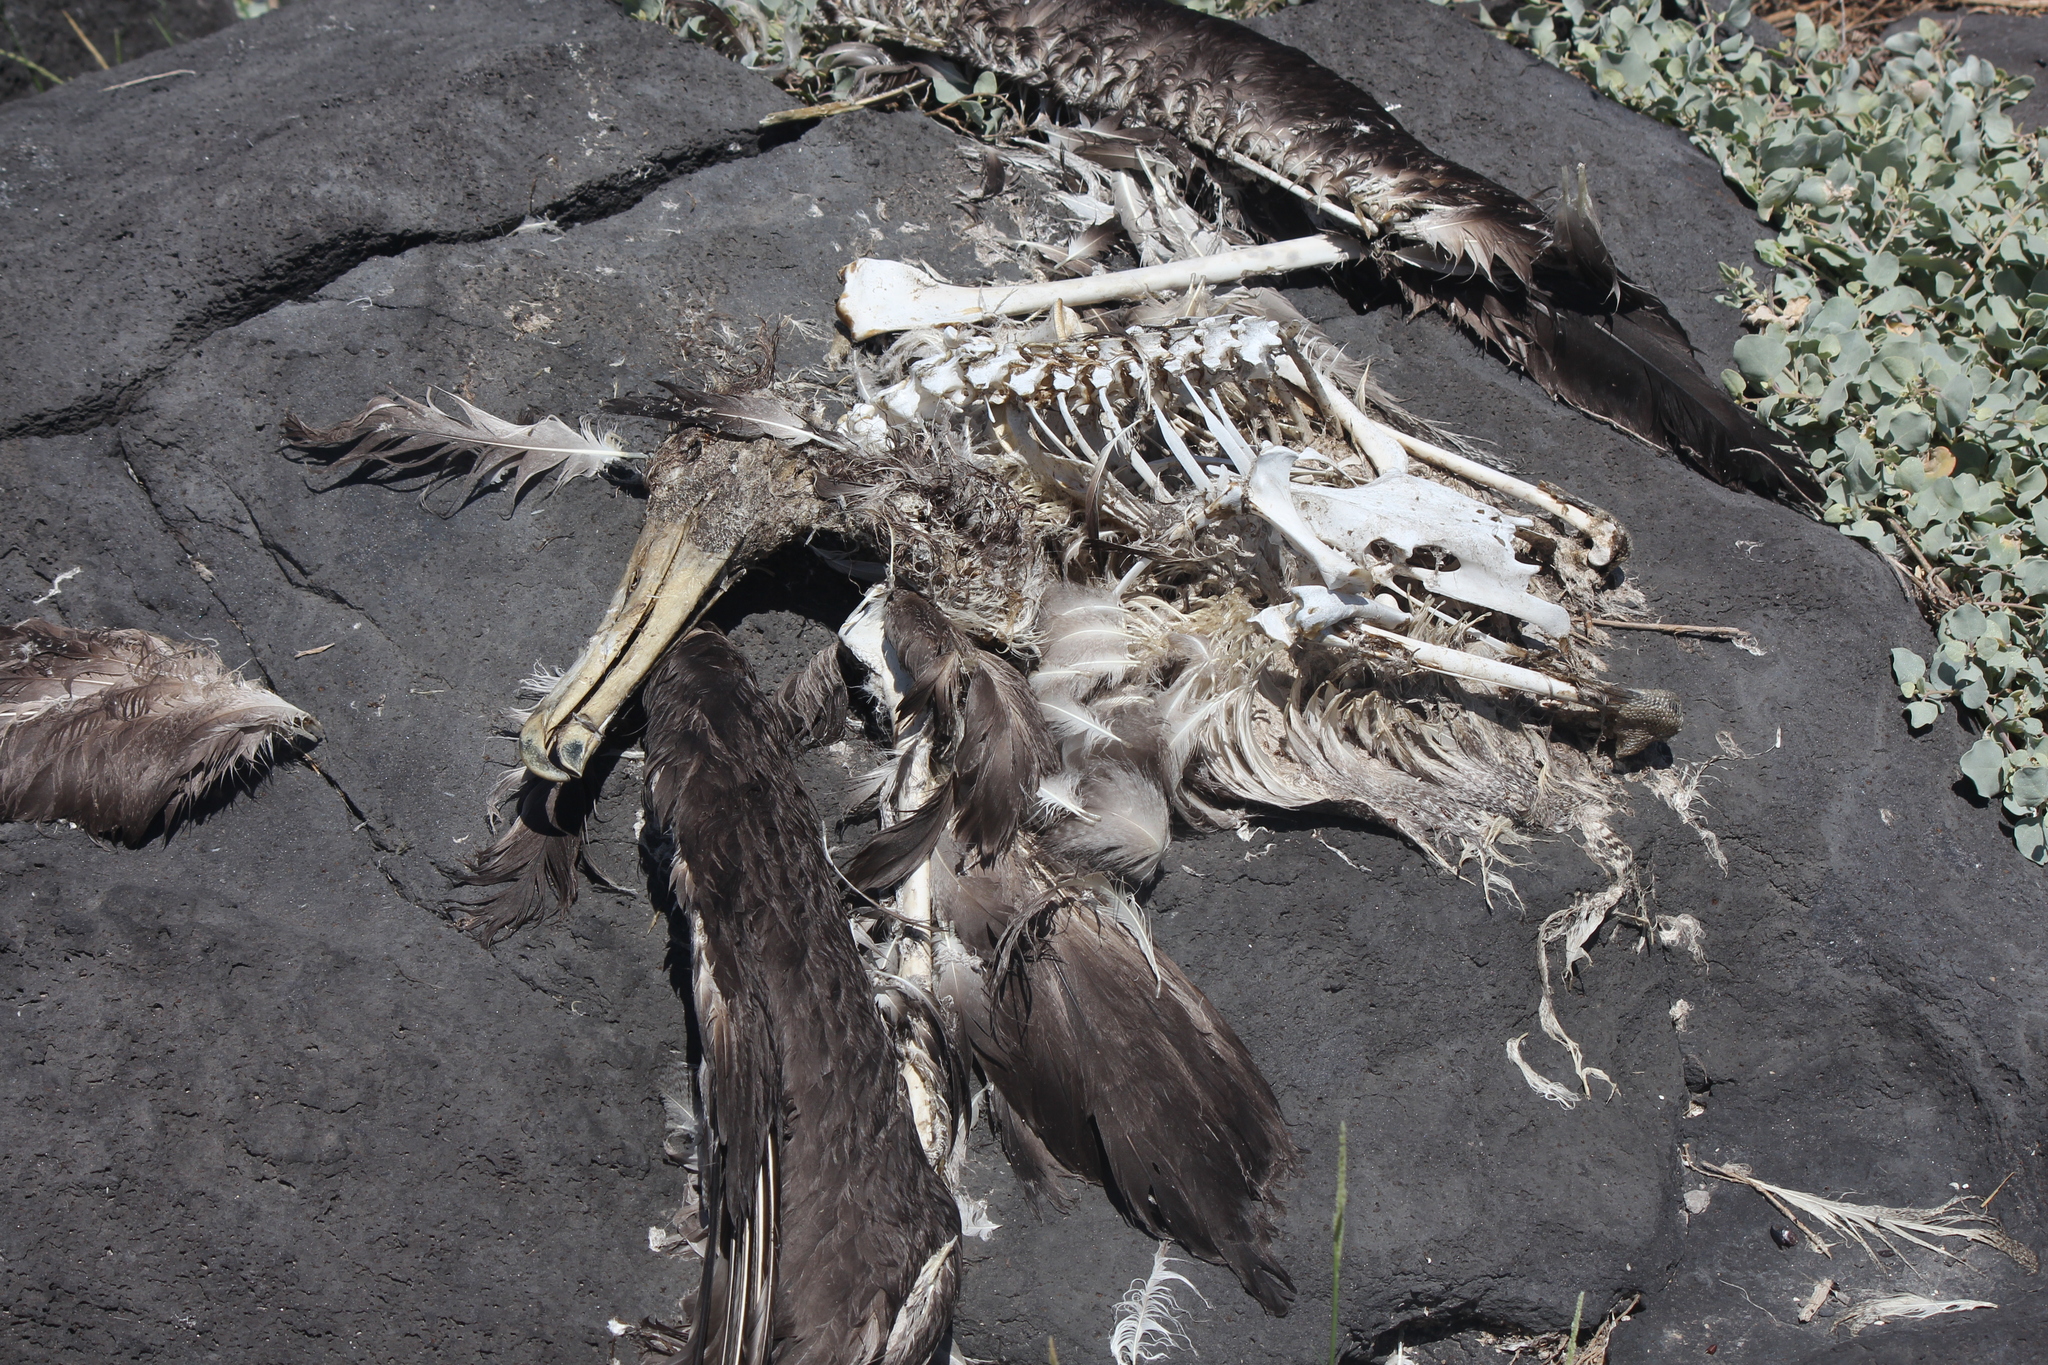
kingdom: Animalia
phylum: Chordata
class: Aves
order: Procellariiformes
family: Diomedeidae
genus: Phoebastria
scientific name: Phoebastria irrorata
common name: Waved albatross
